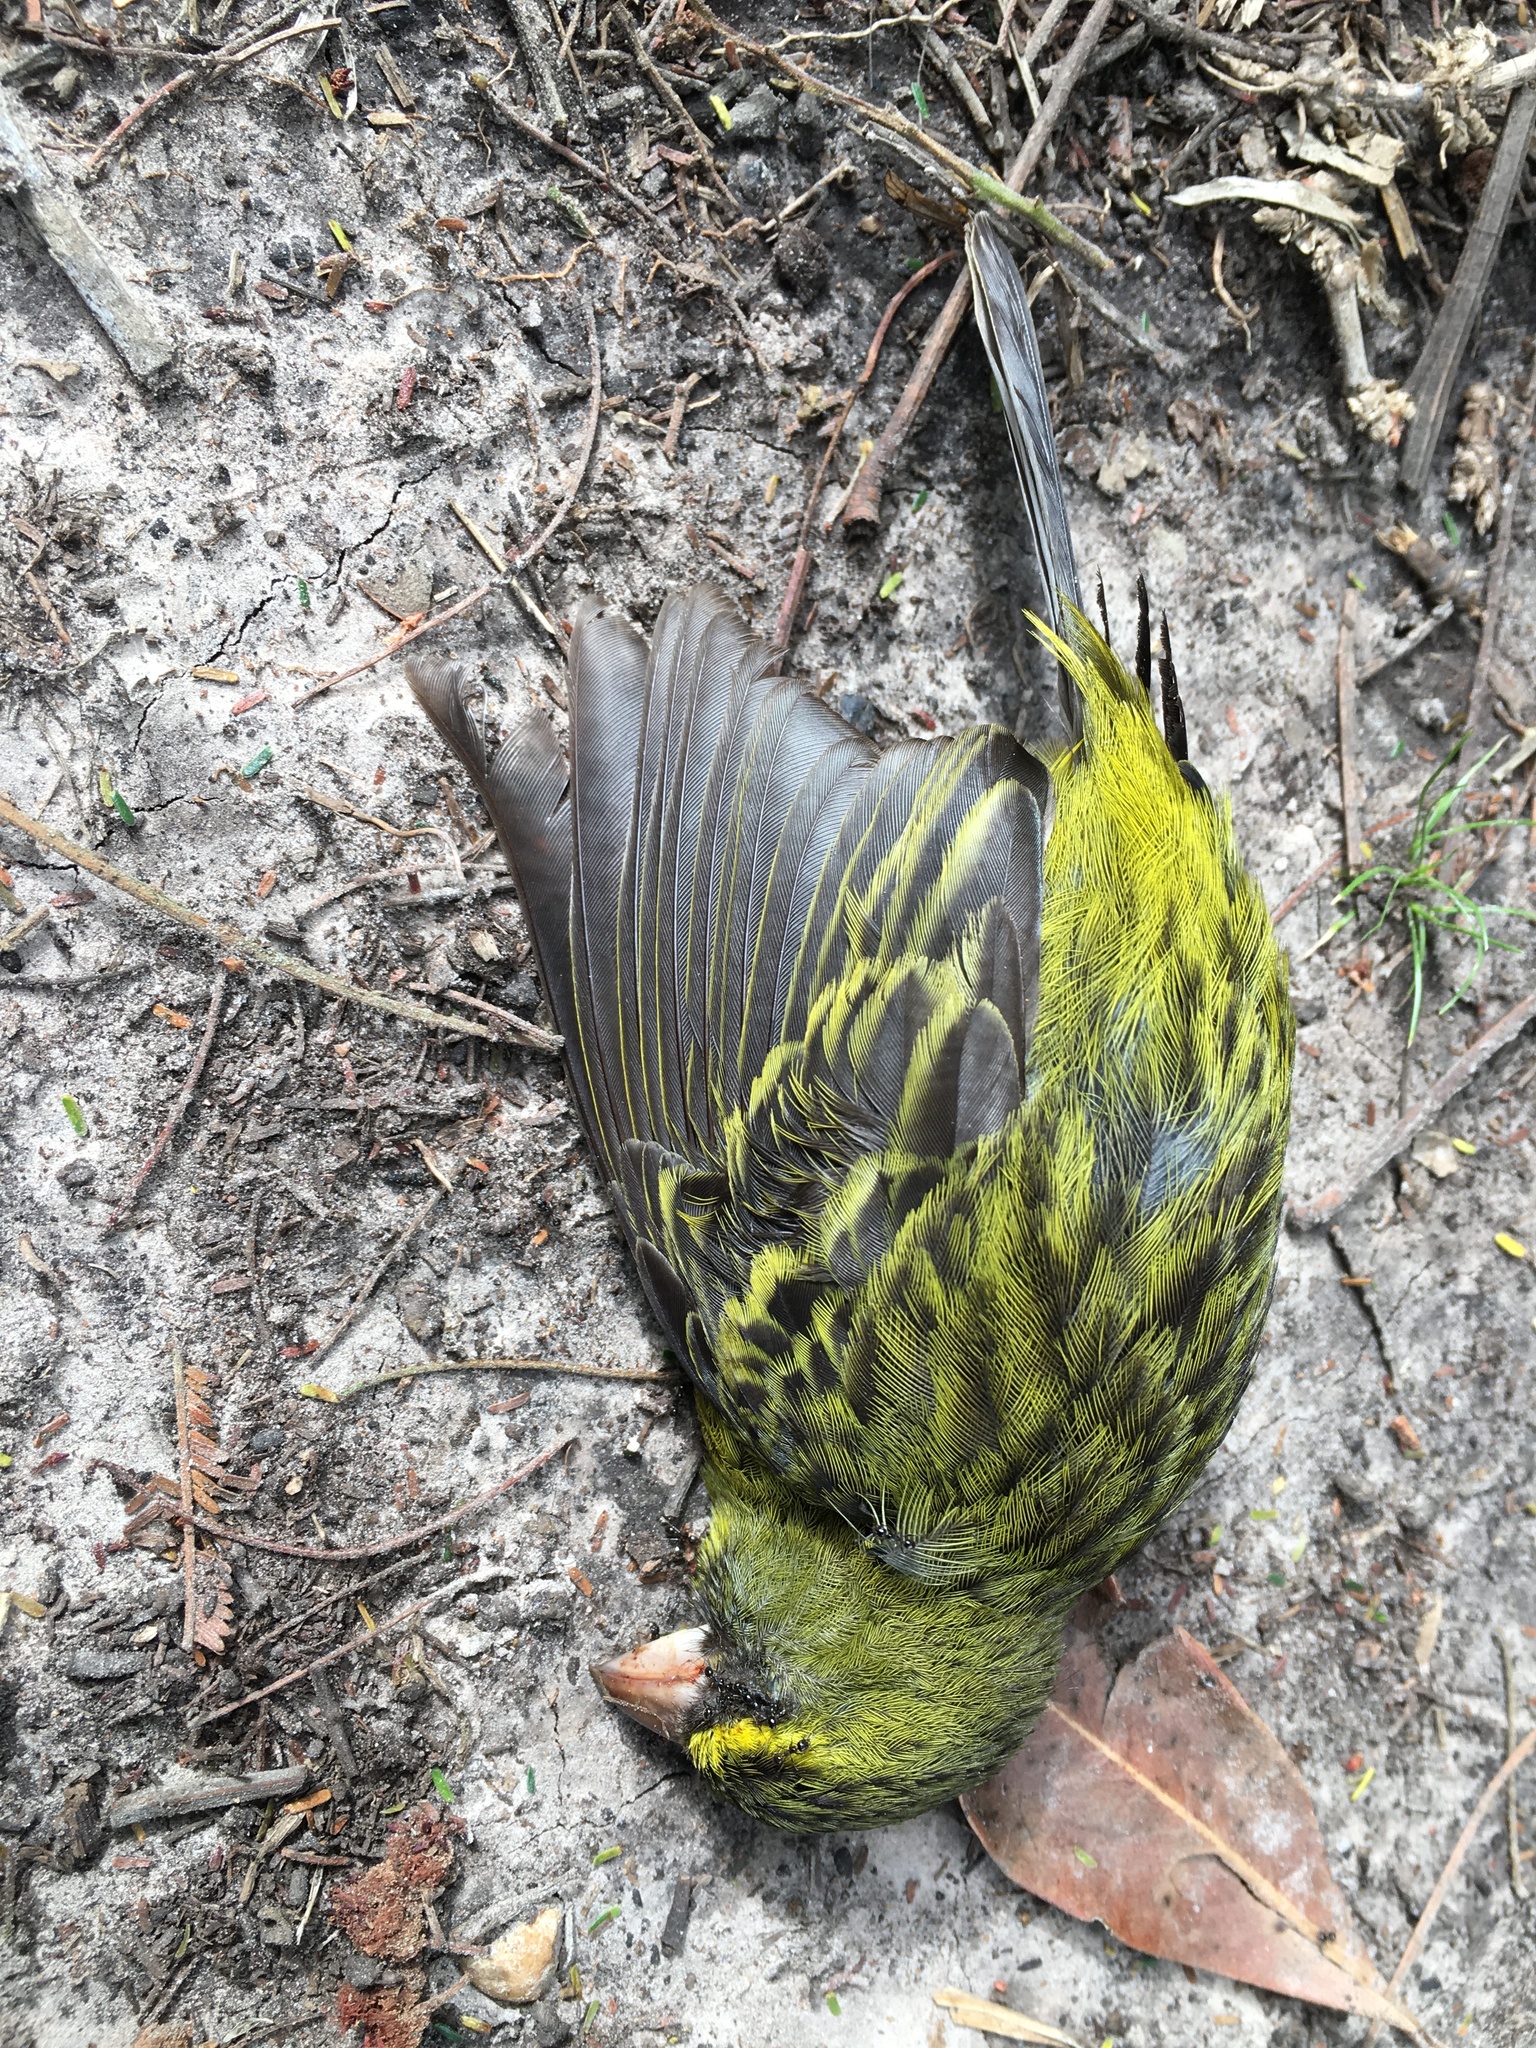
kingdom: Animalia
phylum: Chordata
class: Aves
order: Passeriformes
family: Fringillidae
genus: Crithagra
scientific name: Crithagra scotops
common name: Forest canary
